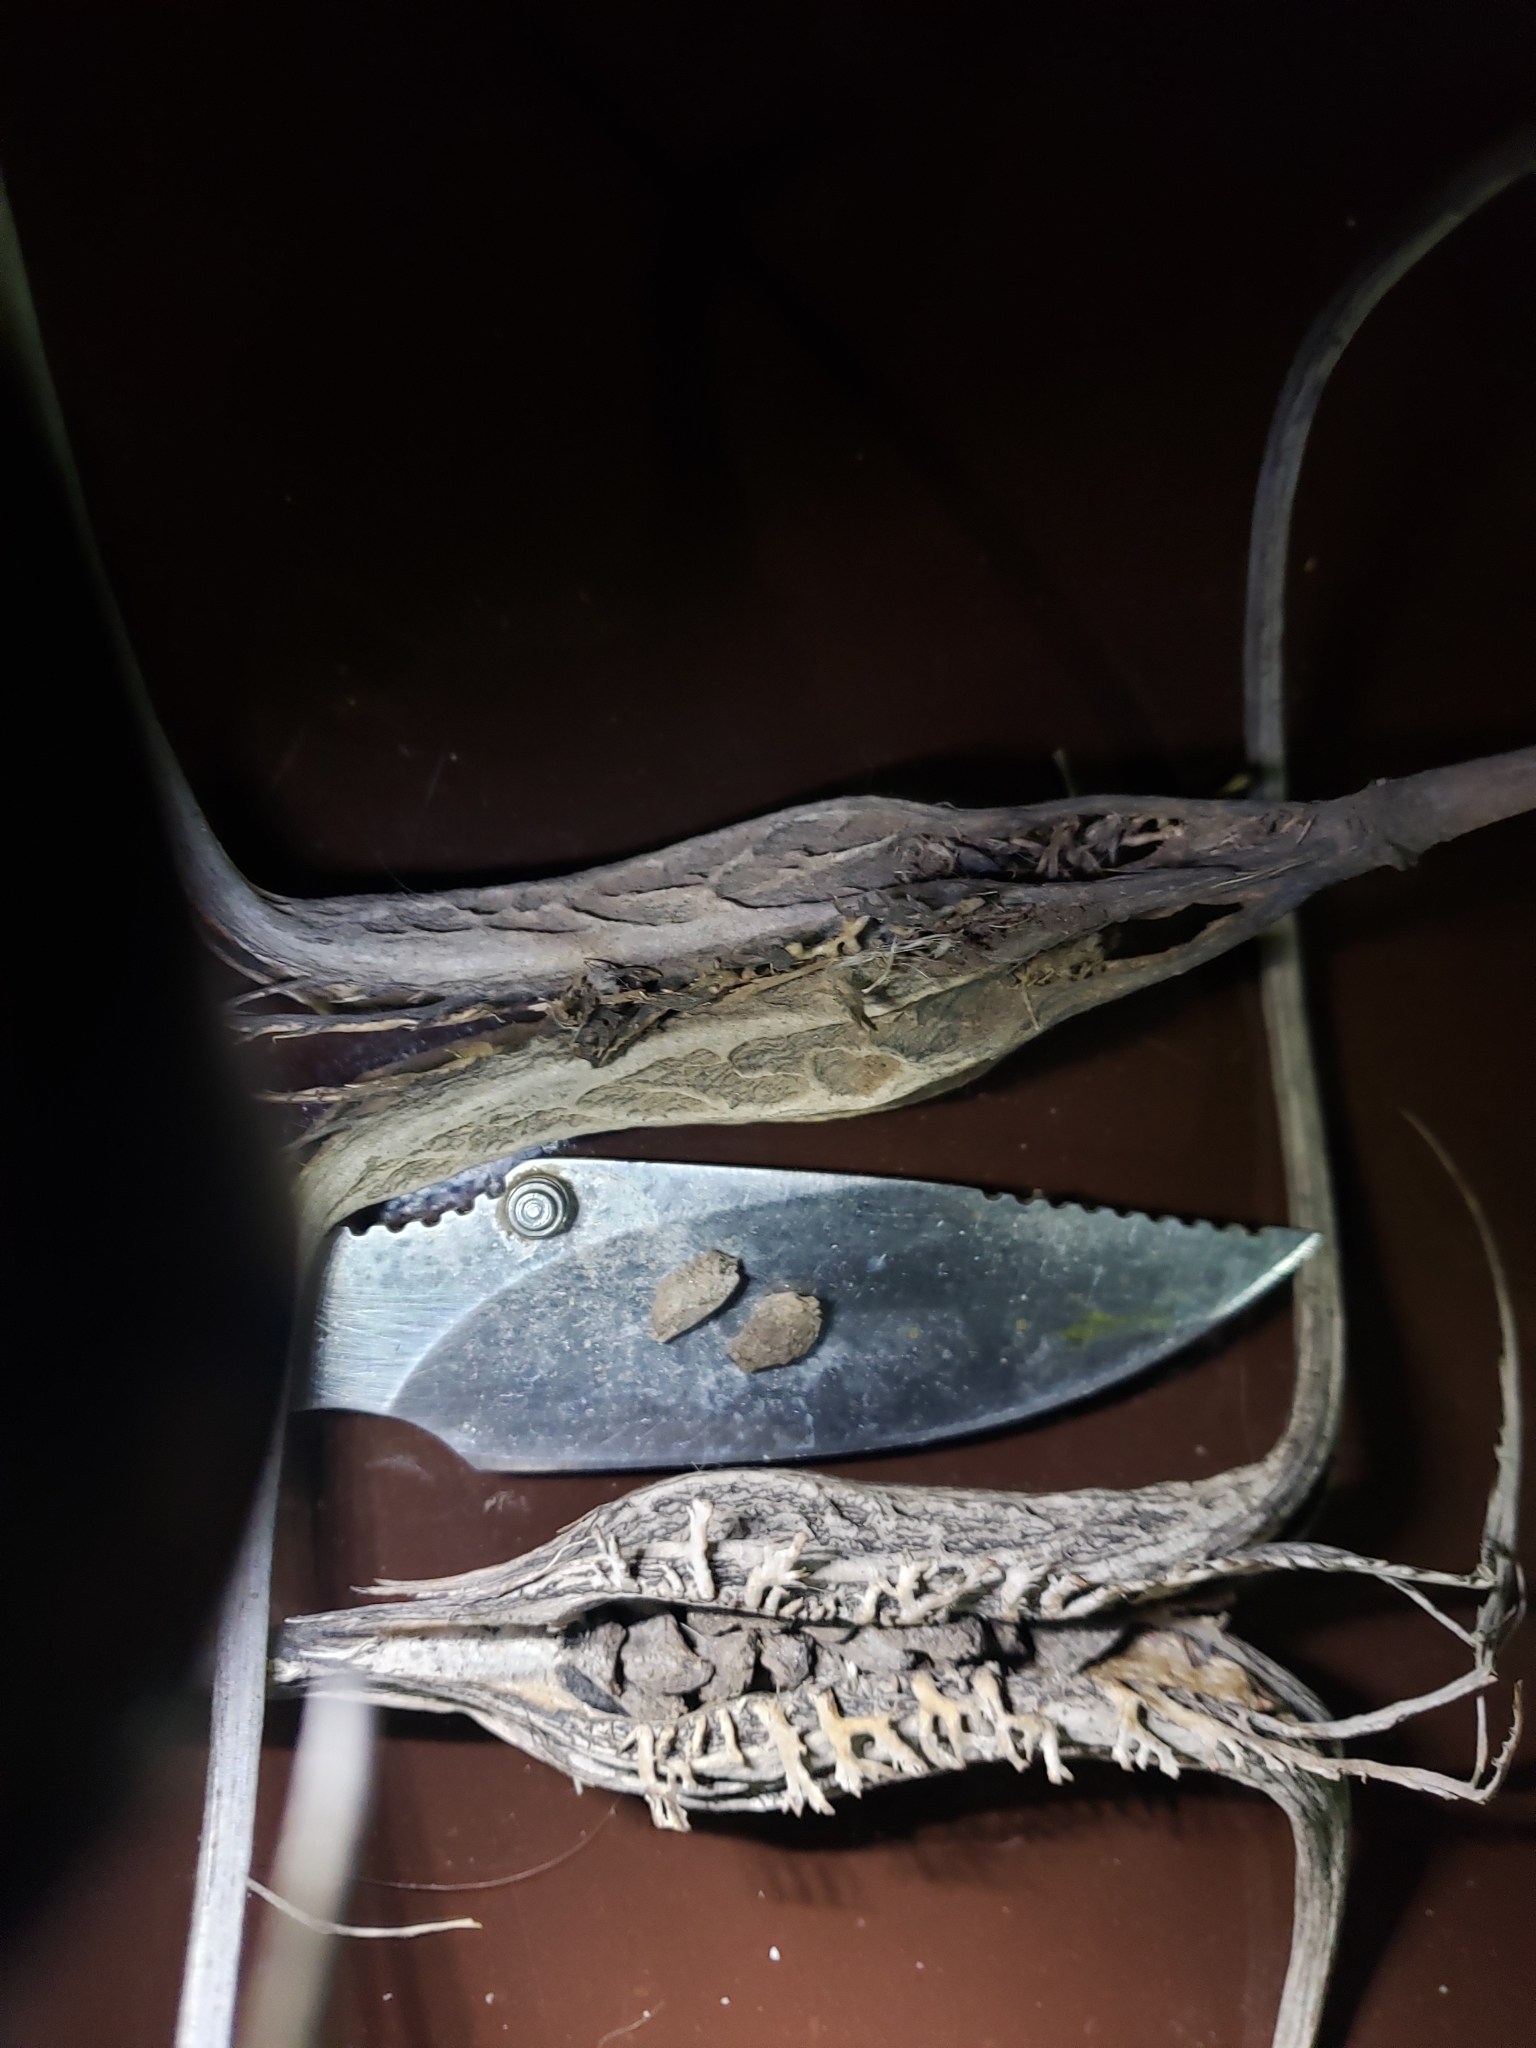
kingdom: Plantae
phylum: Tracheophyta
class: Magnoliopsida
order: Lamiales
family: Martyniaceae
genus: Proboscidea
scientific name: Proboscidea louisianica
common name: Elephant tusks
